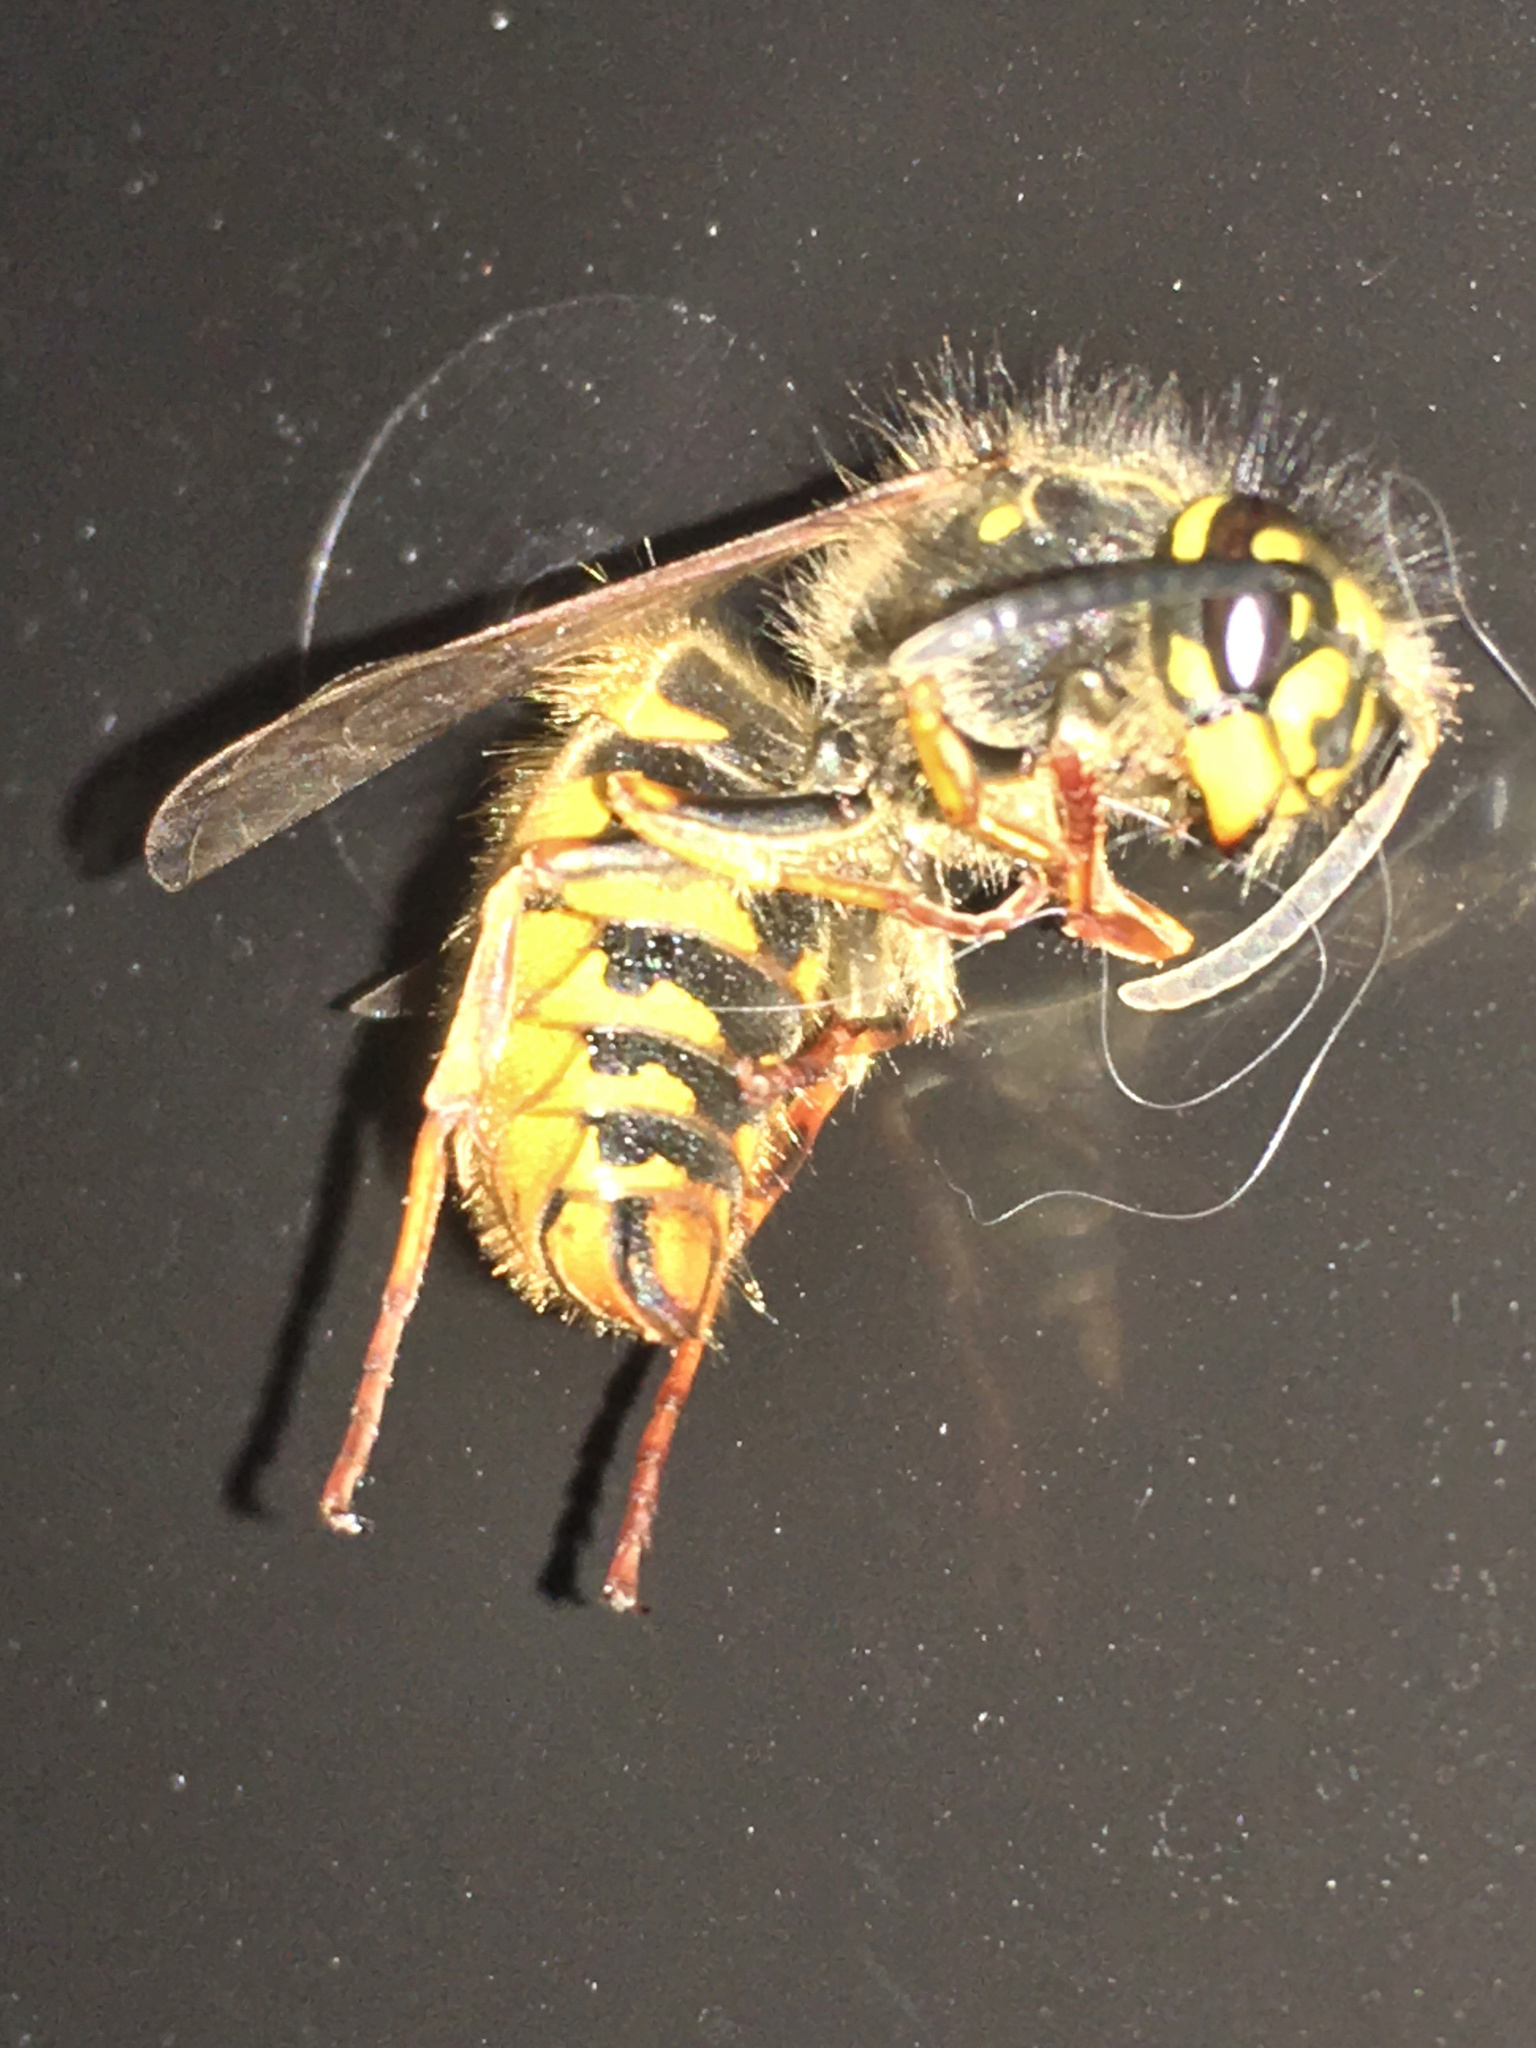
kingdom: Animalia
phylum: Arthropoda
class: Insecta
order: Hymenoptera
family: Vespidae
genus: Vespula
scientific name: Vespula vulgaris
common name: Common wasp
